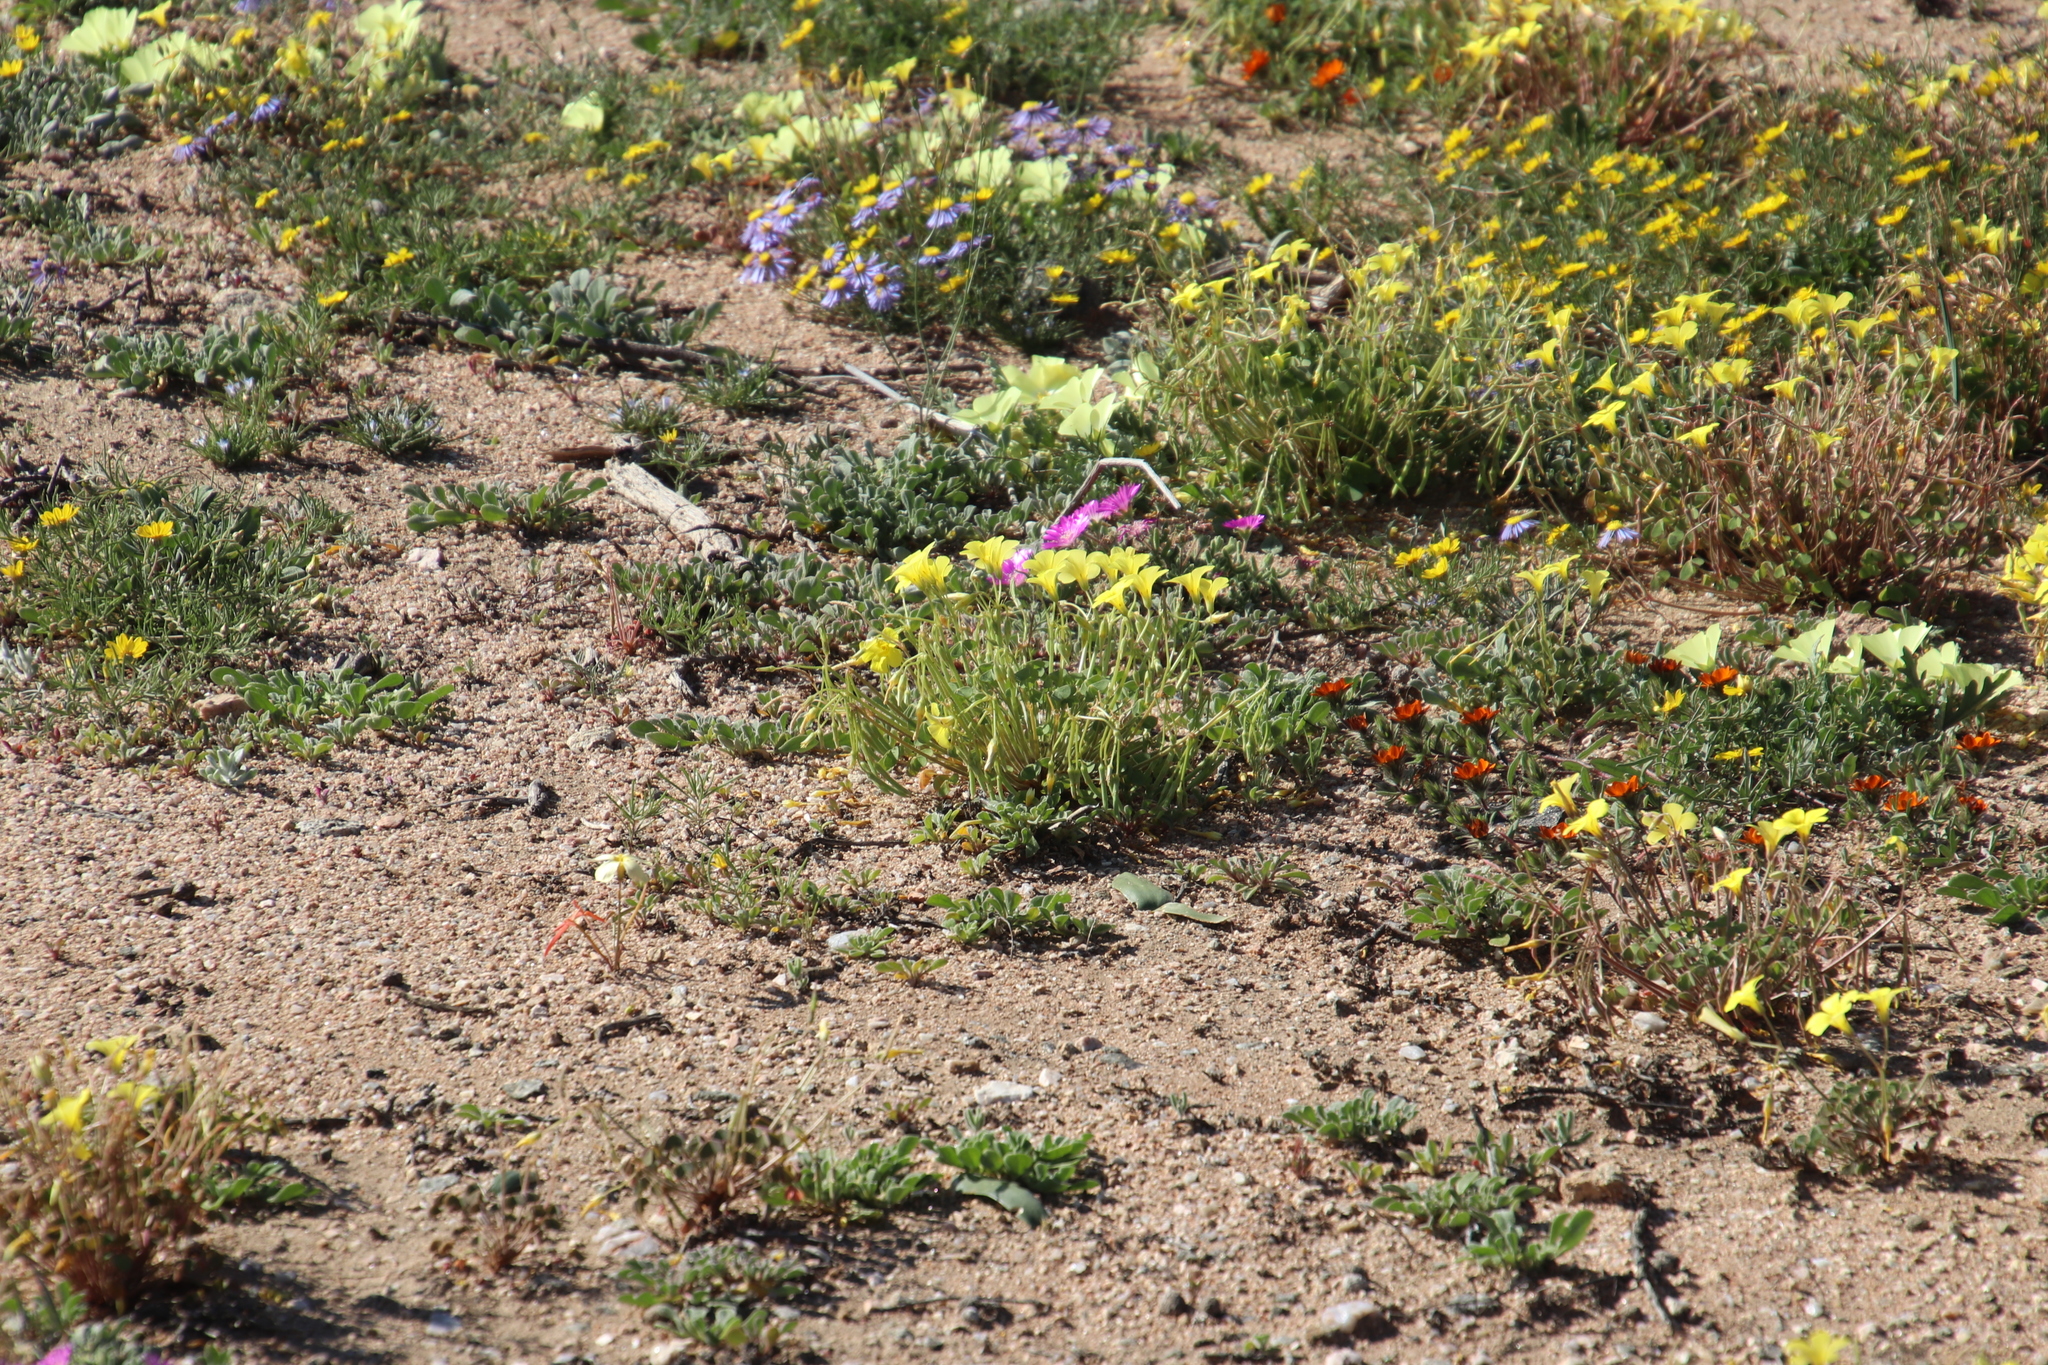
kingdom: Plantae
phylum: Tracheophyta
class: Magnoliopsida
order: Oxalidales
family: Oxalidaceae
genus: Oxalis
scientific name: Oxalis copiosa
